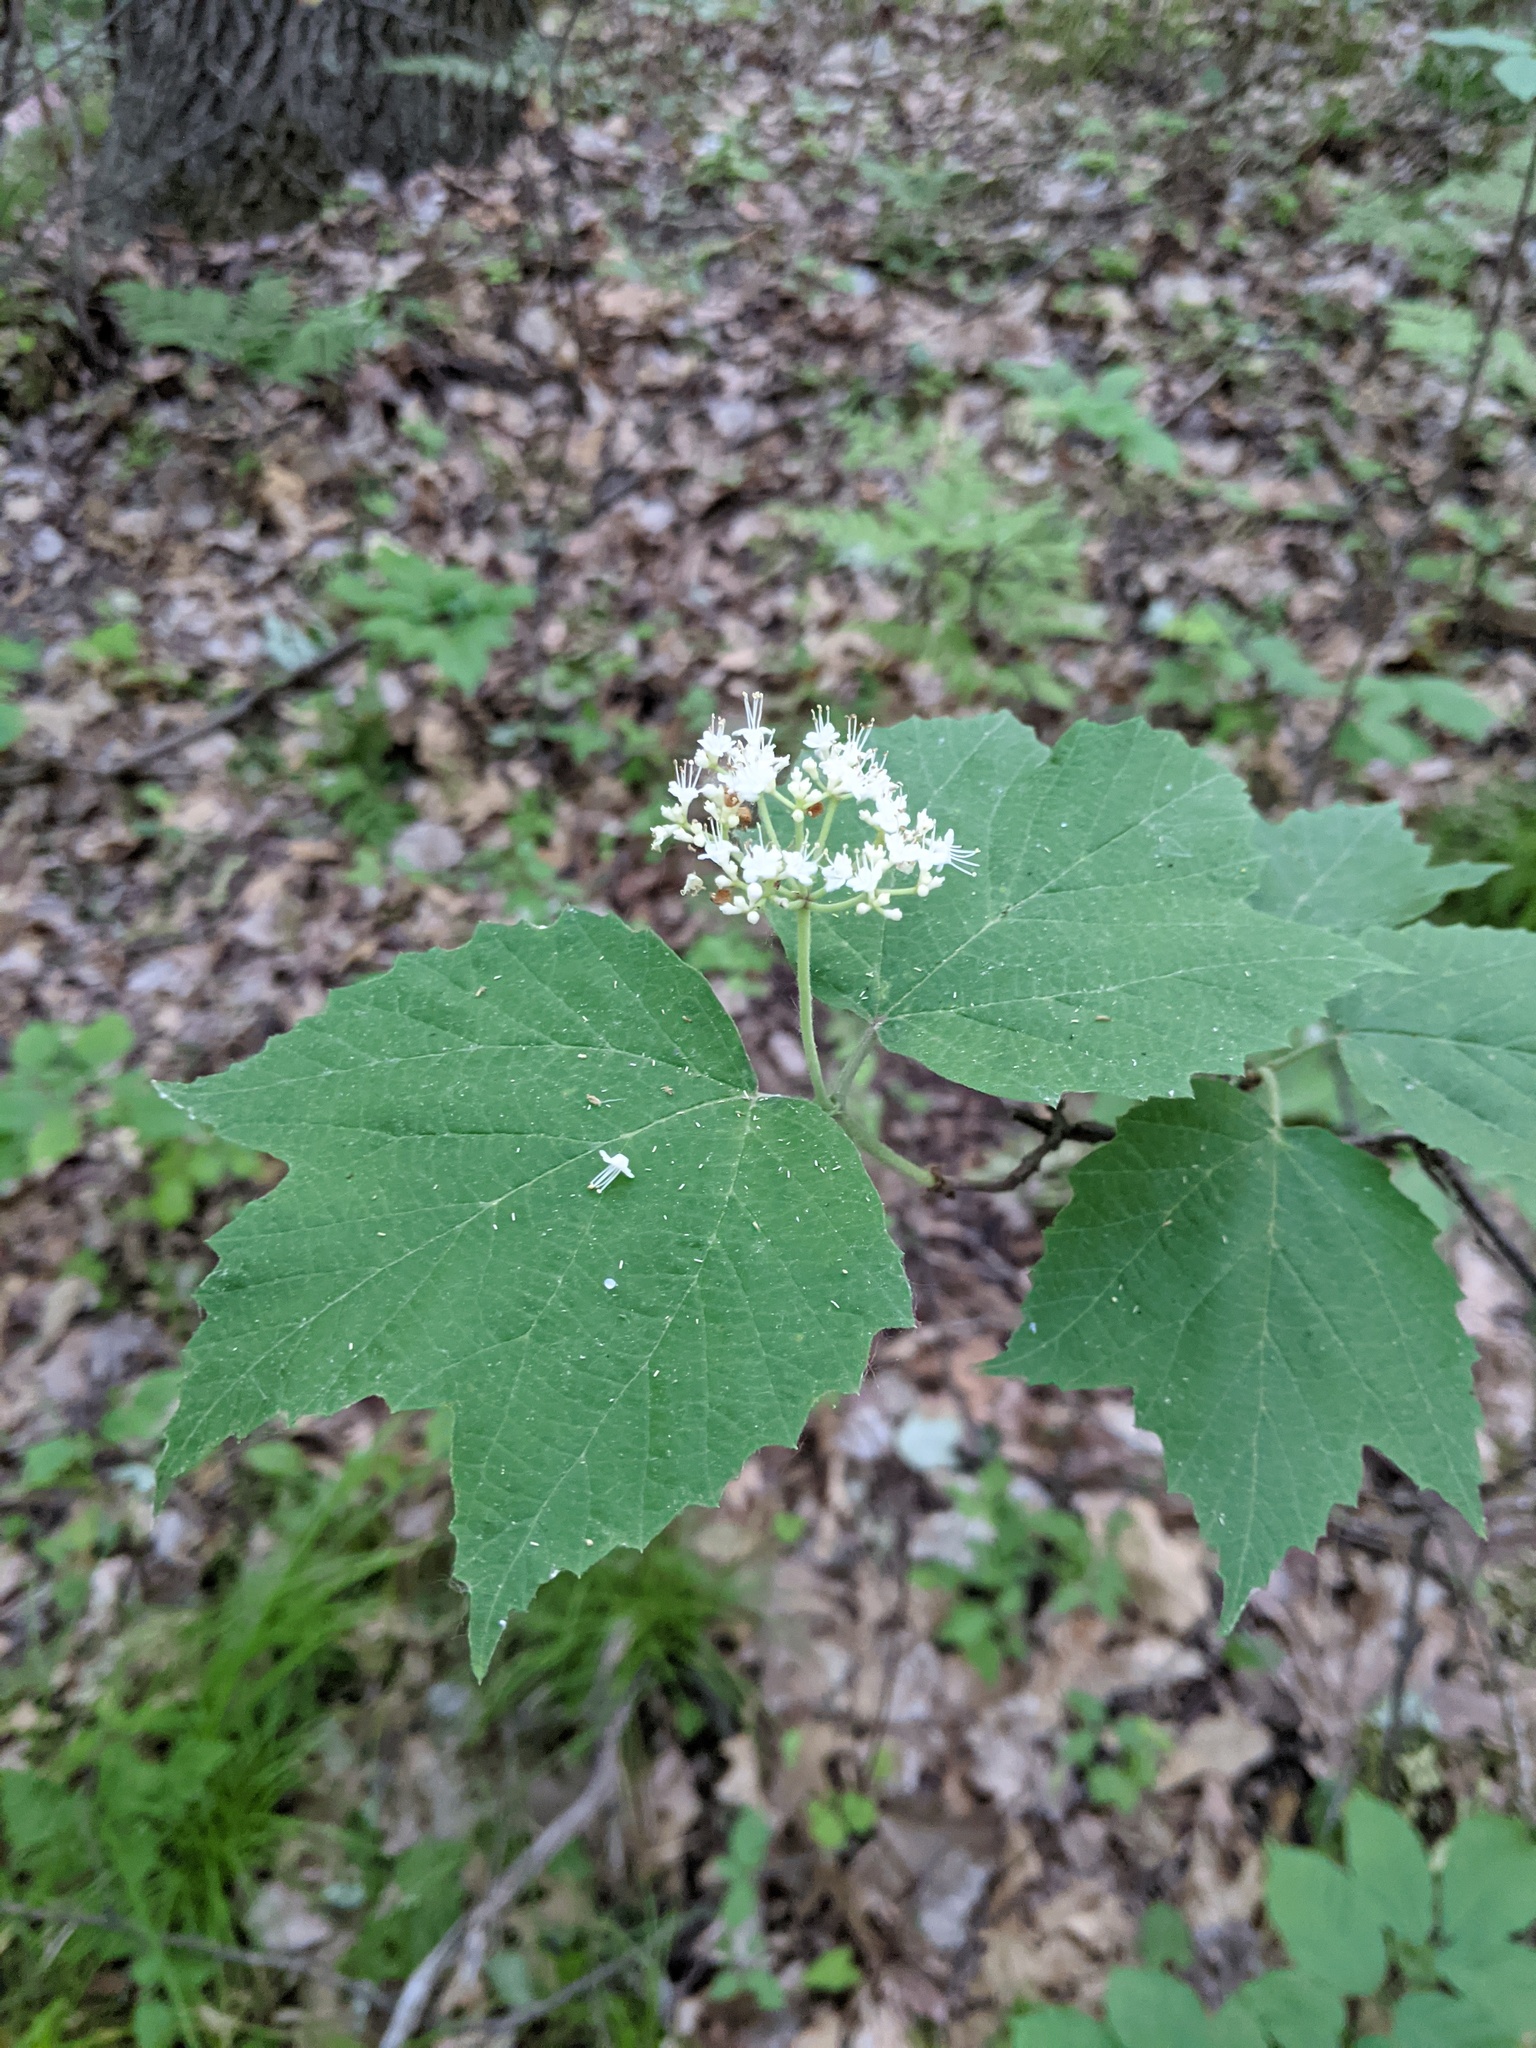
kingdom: Plantae
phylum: Tracheophyta
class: Magnoliopsida
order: Dipsacales
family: Viburnaceae
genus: Viburnum
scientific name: Viburnum acerifolium
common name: Dockmackie
